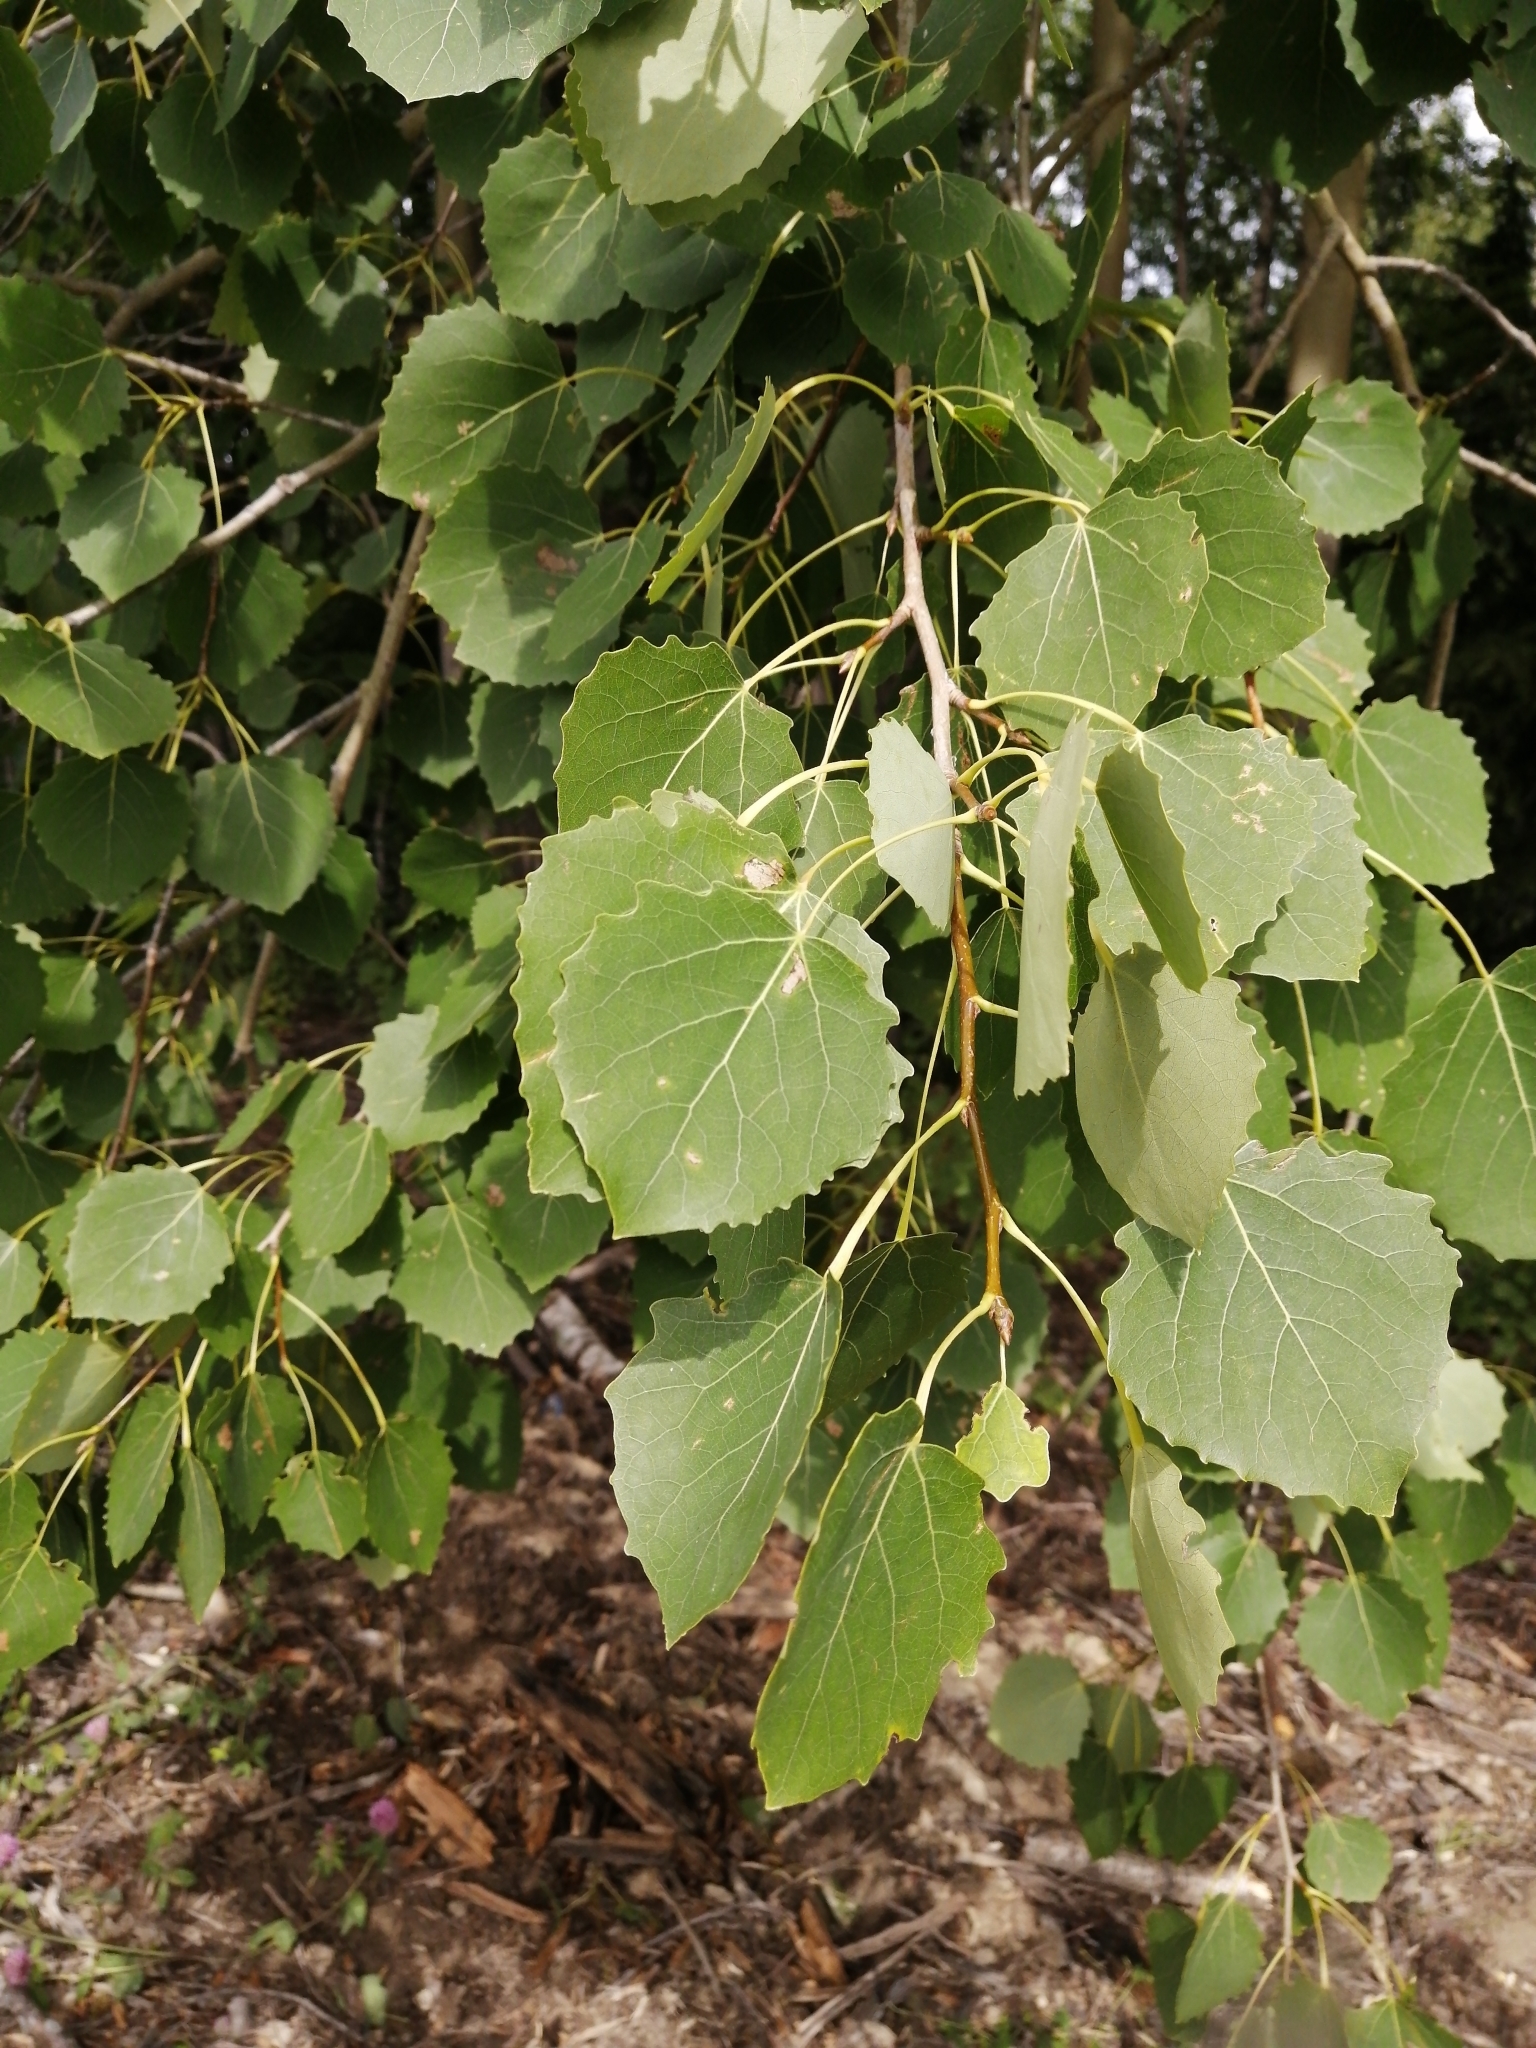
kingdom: Plantae
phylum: Tracheophyta
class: Magnoliopsida
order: Malpighiales
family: Salicaceae
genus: Populus
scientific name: Populus tremula
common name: European aspen
